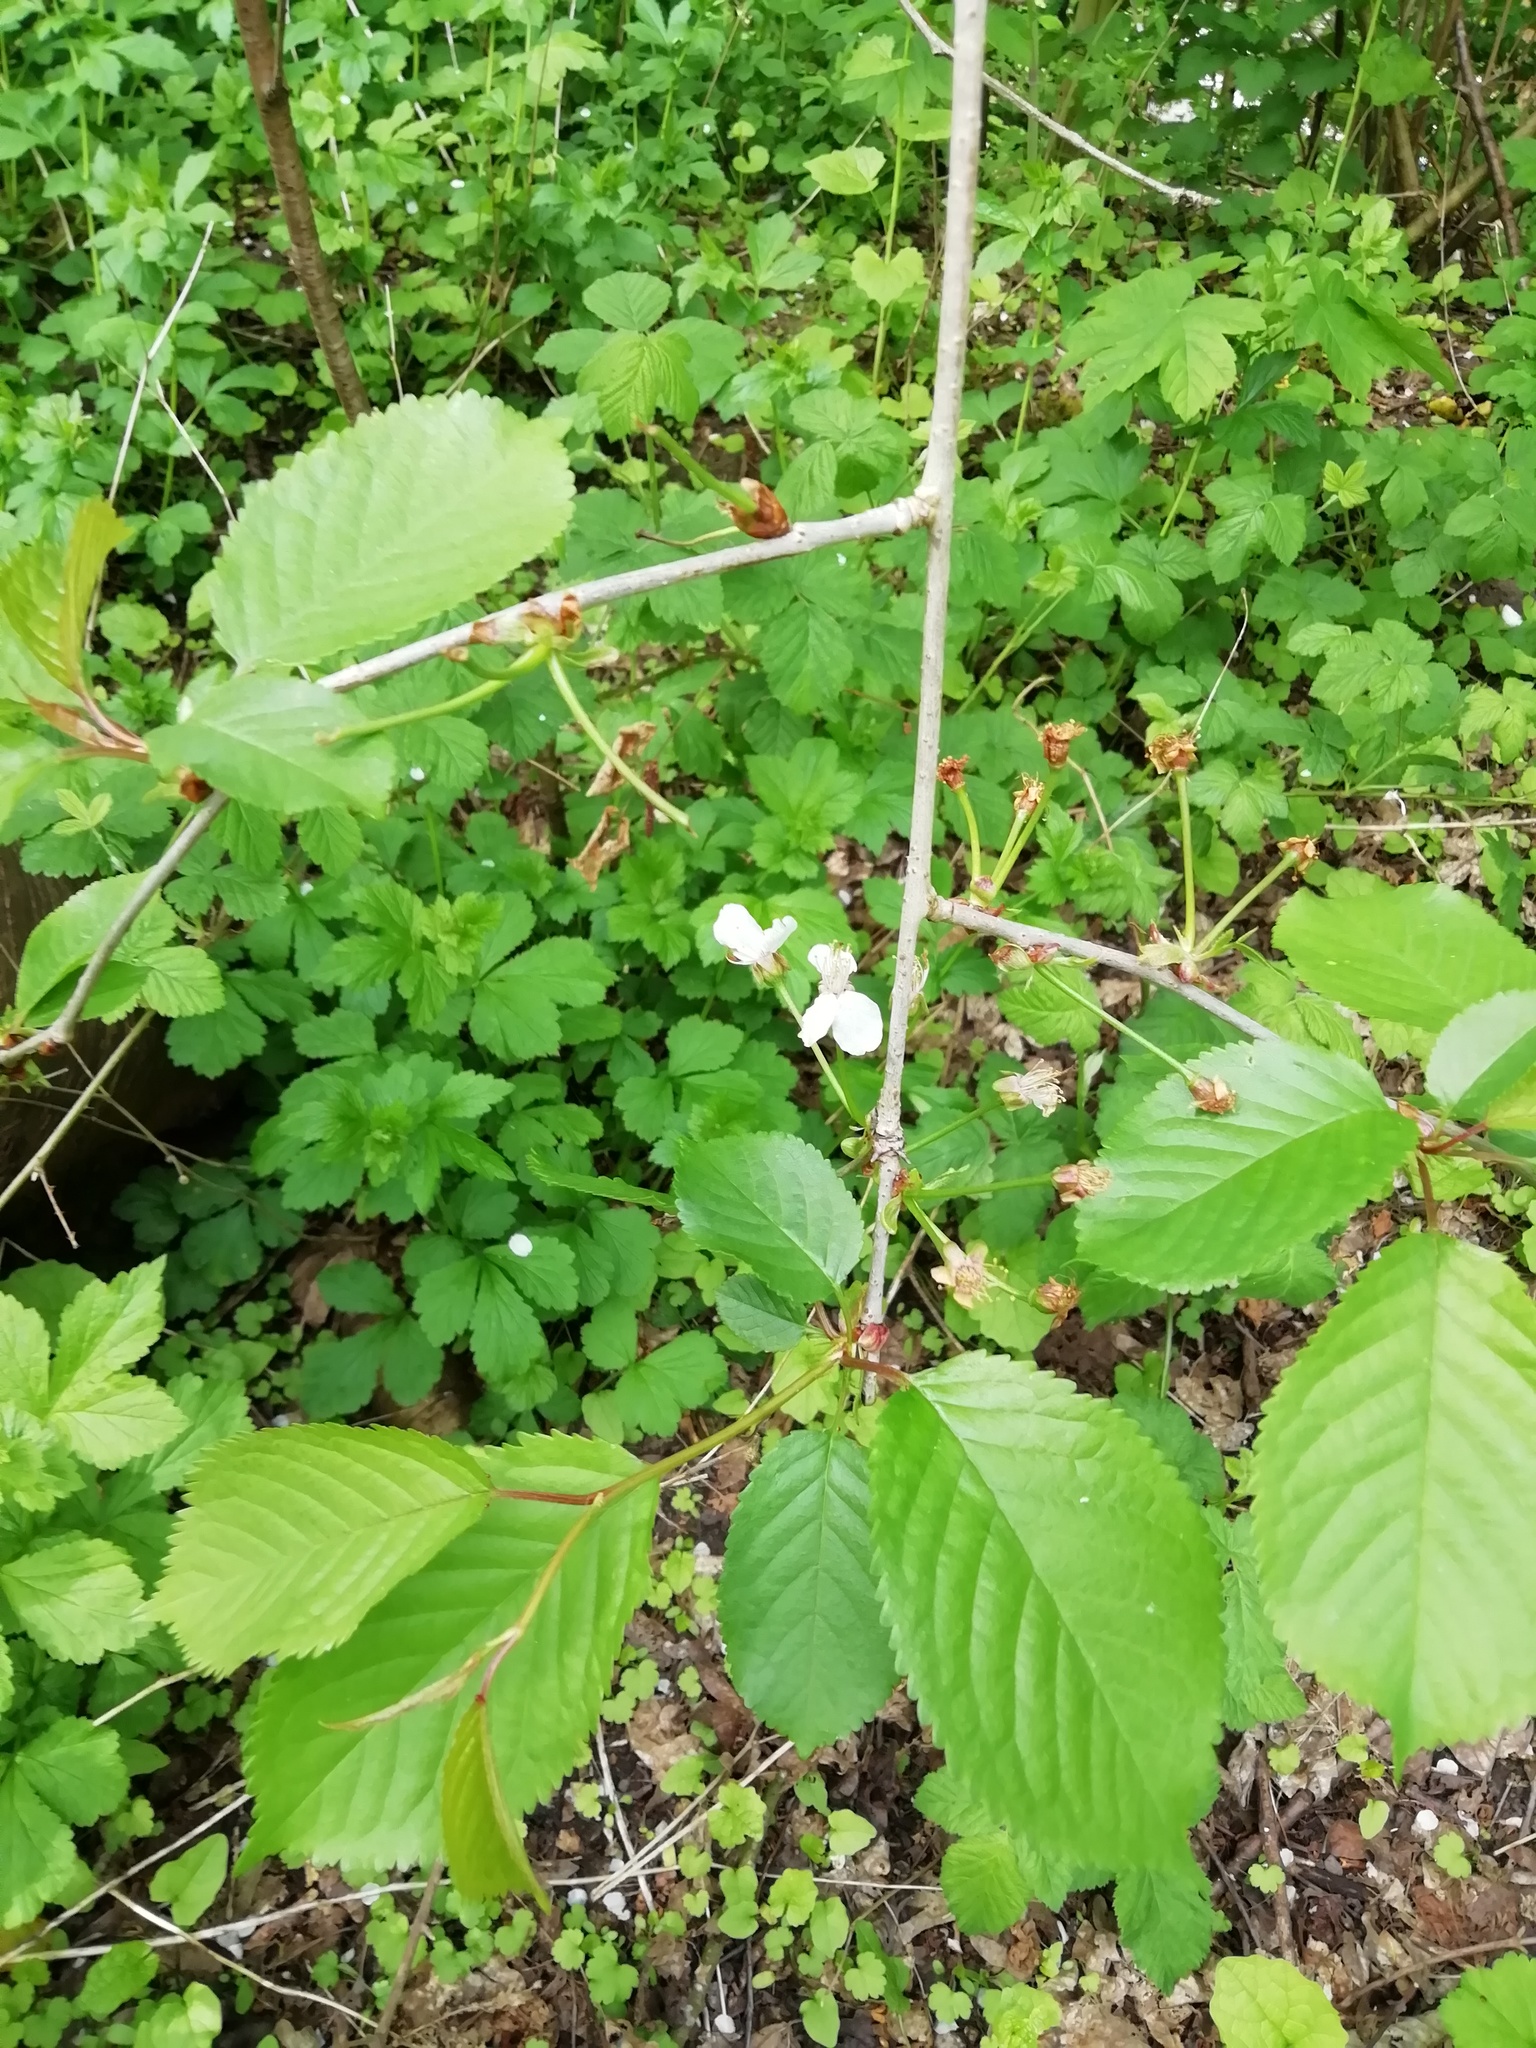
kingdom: Plantae
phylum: Tracheophyta
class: Magnoliopsida
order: Rosales
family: Rosaceae
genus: Prunus
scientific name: Prunus avium
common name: Sweet cherry
